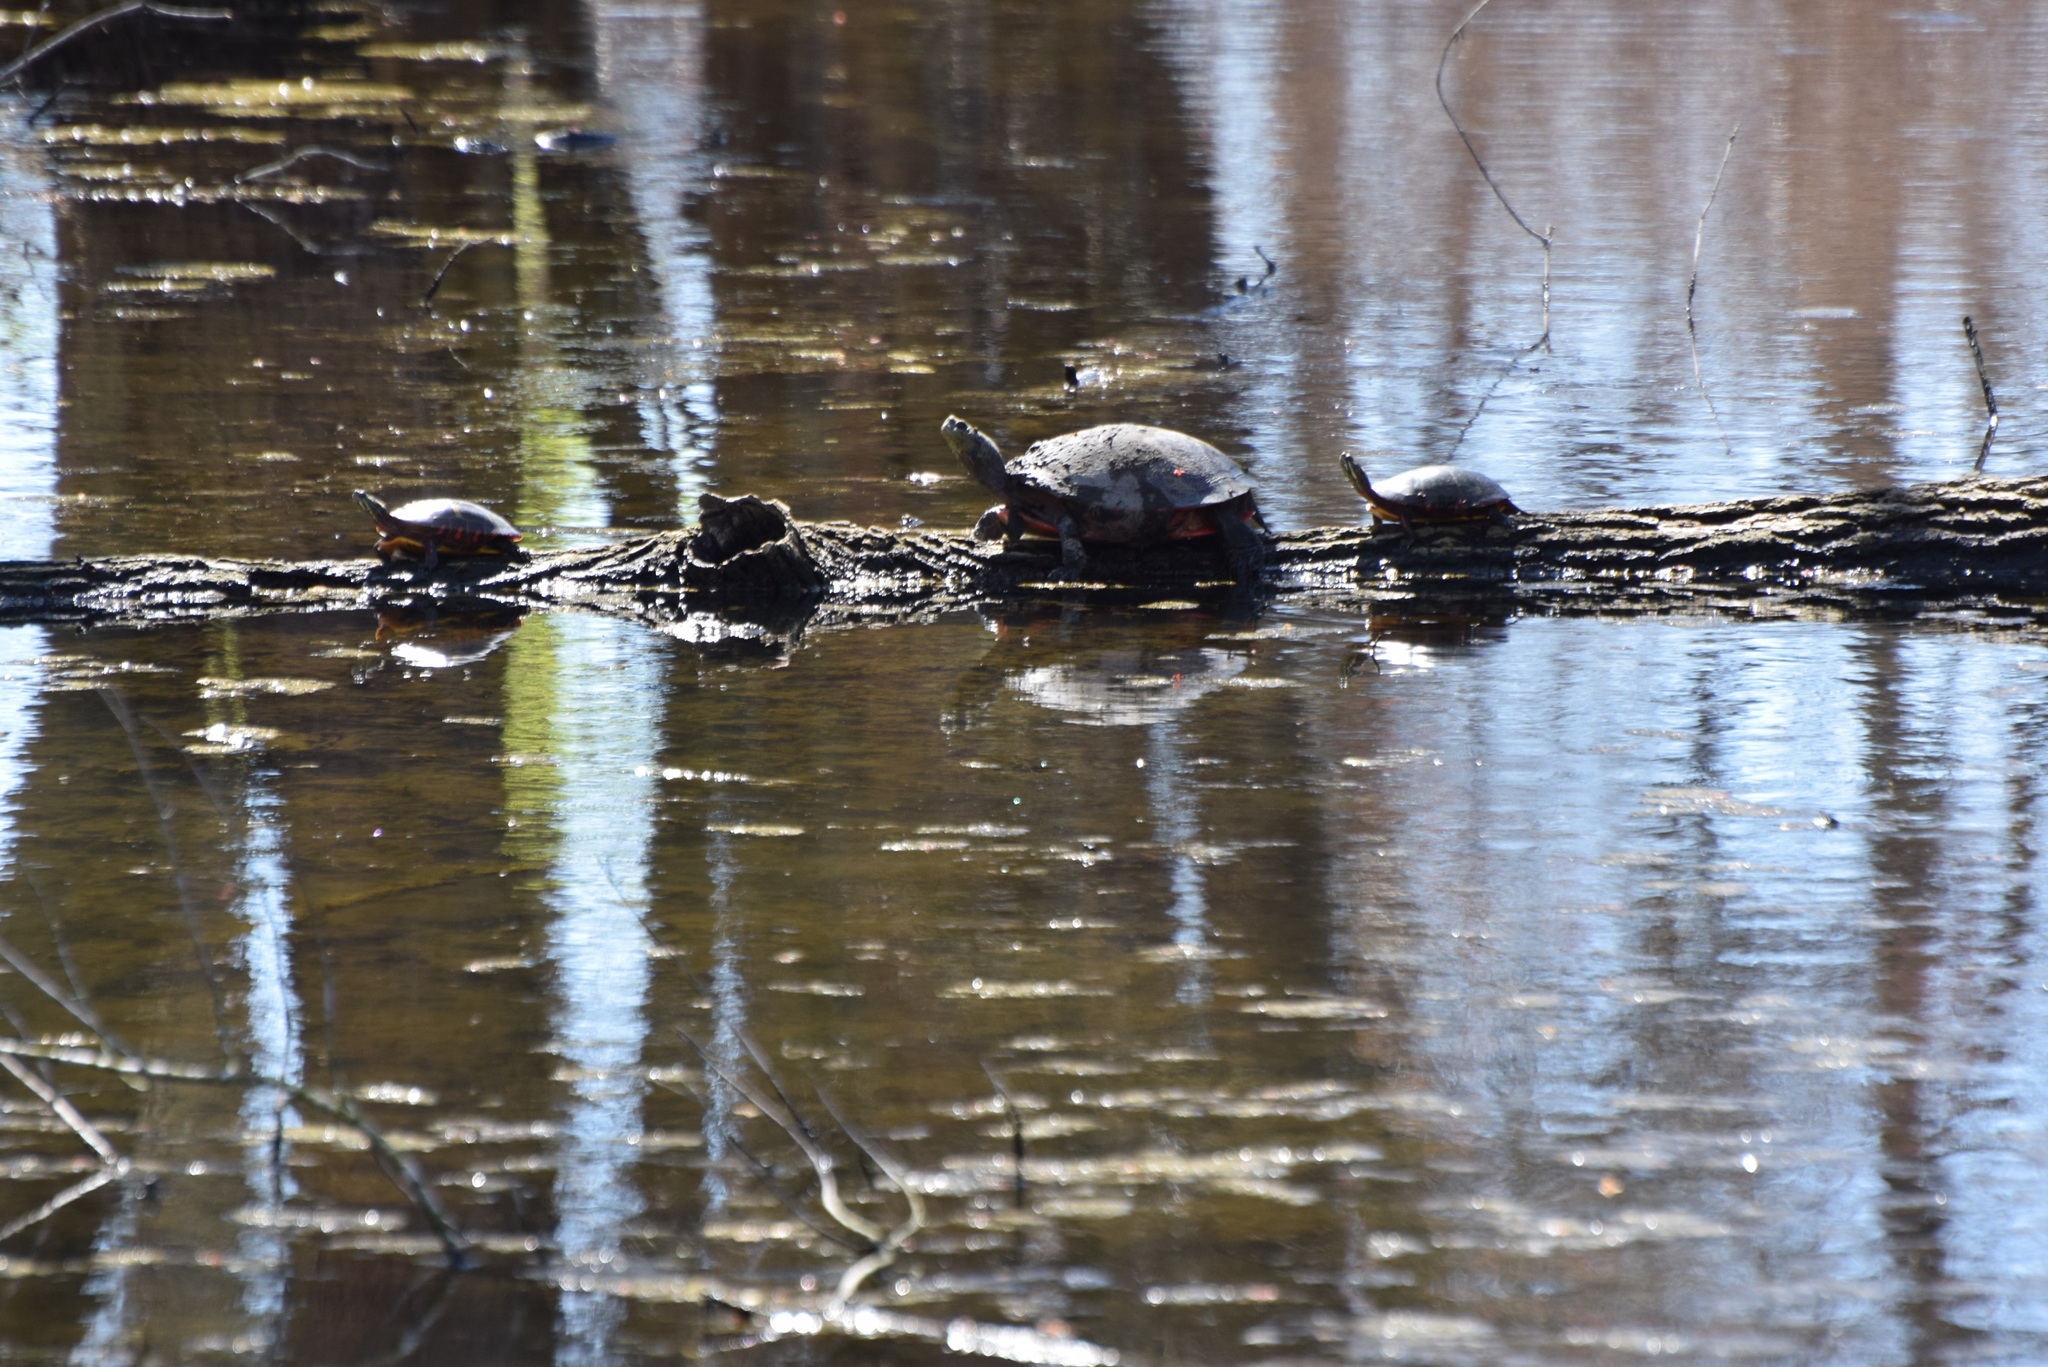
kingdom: Animalia
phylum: Chordata
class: Testudines
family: Emydidae
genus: Chrysemys
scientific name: Chrysemys picta
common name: Painted turtle
